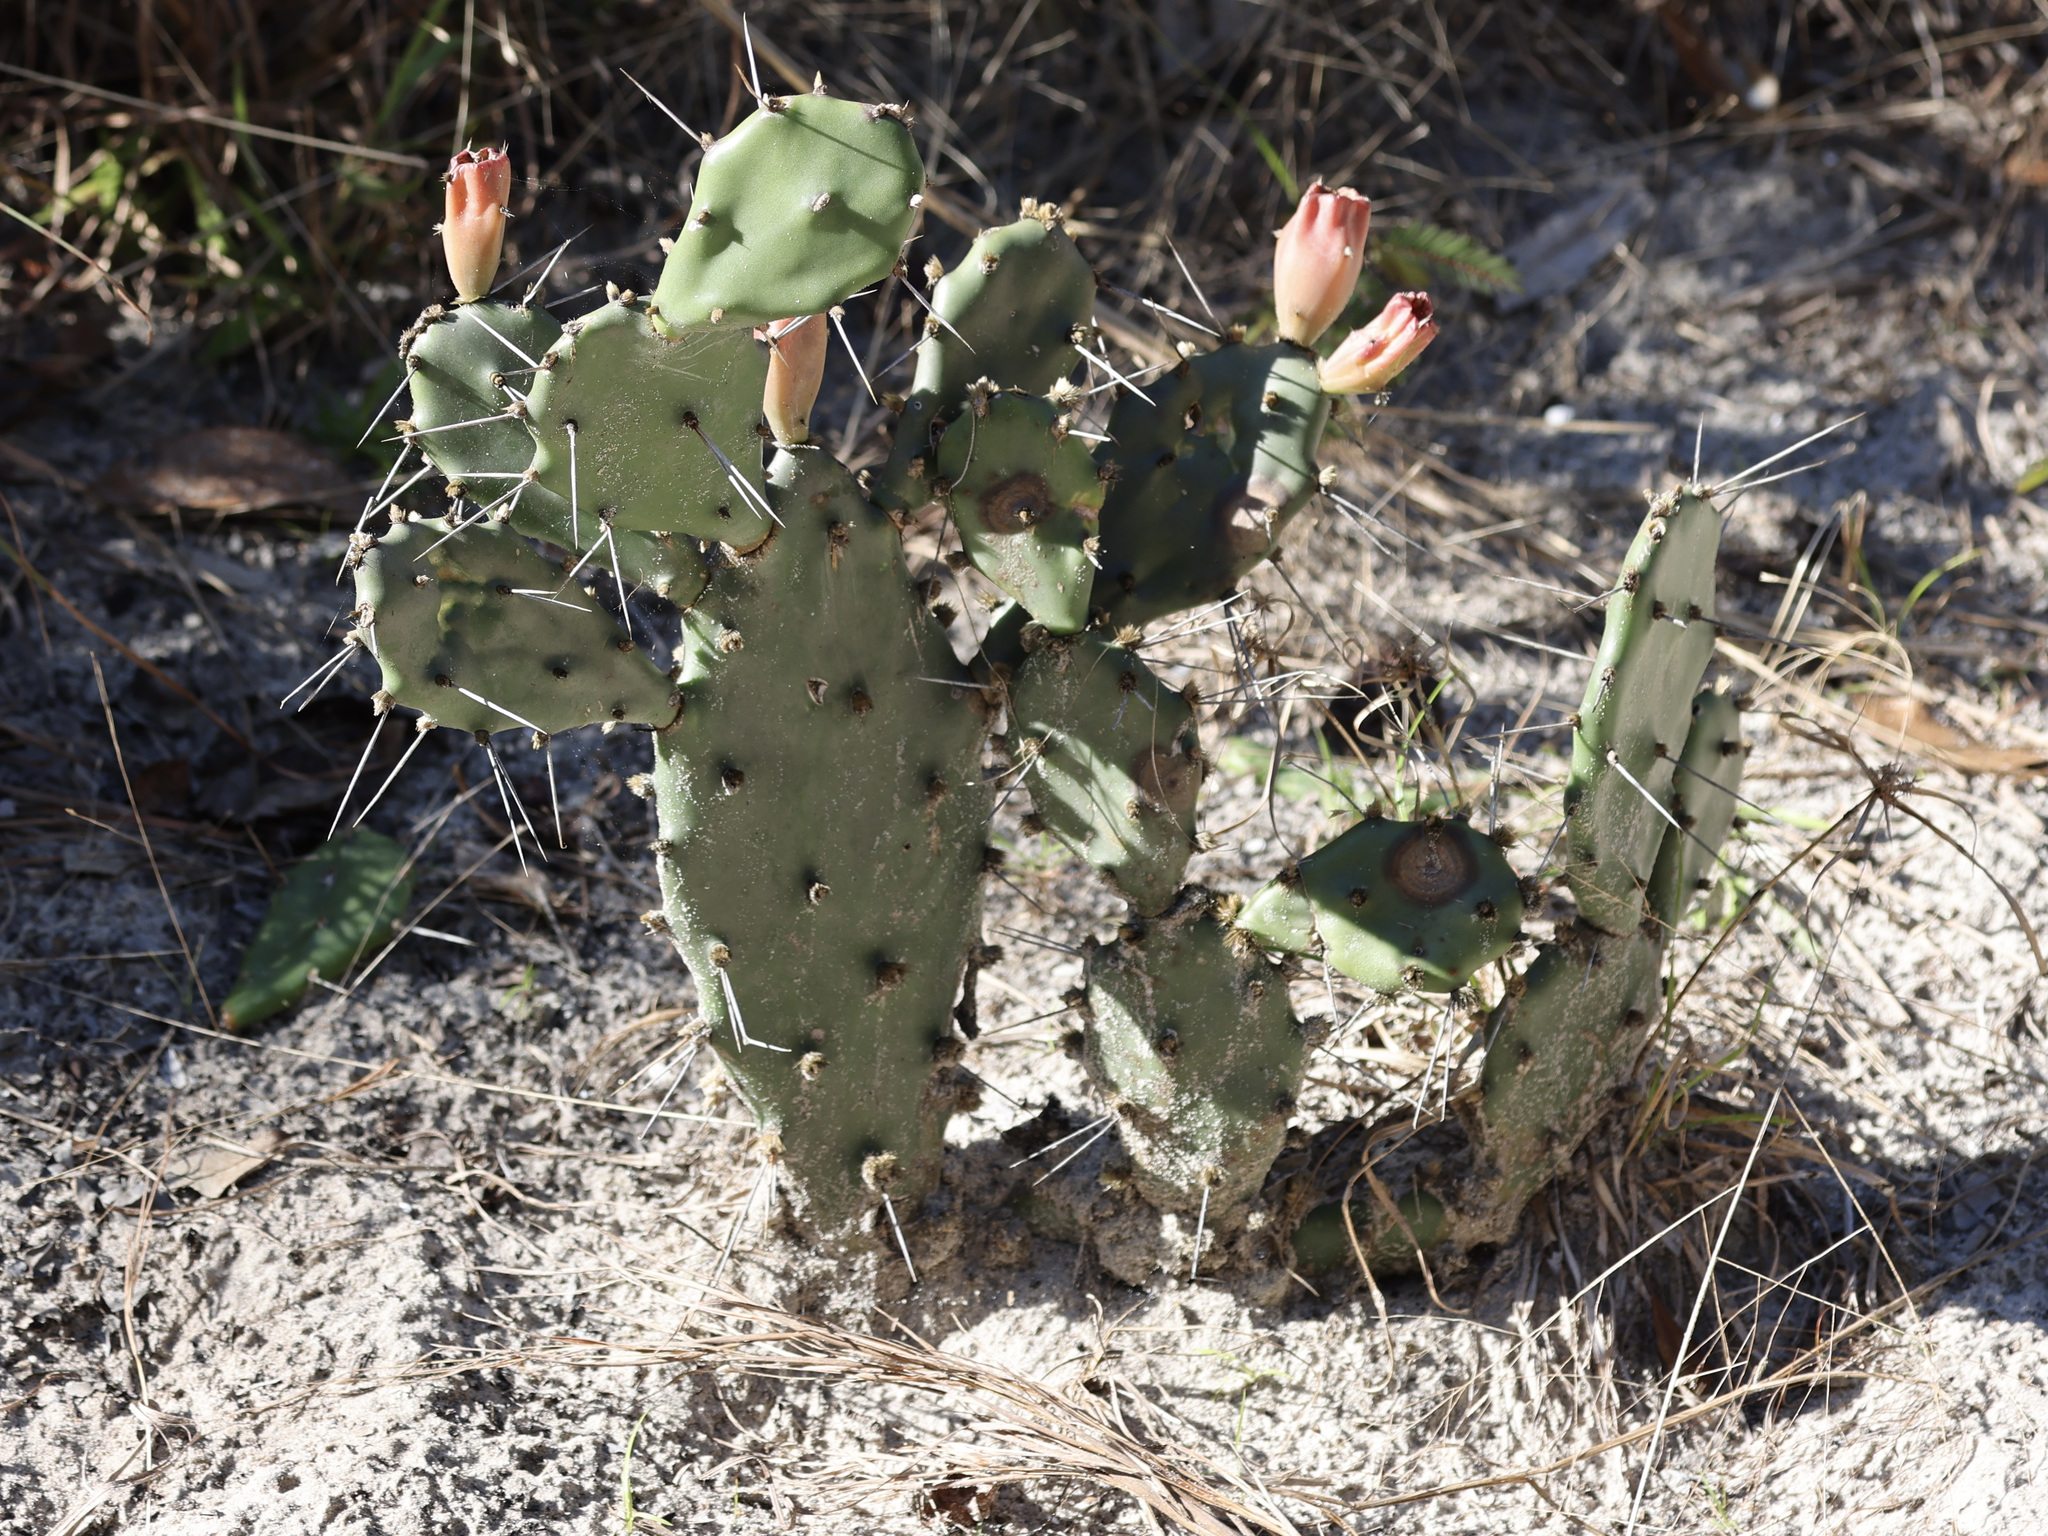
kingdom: Plantae
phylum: Tracheophyta
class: Magnoliopsida
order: Caryophyllales
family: Cactaceae
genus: Opuntia
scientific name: Opuntia austrina
